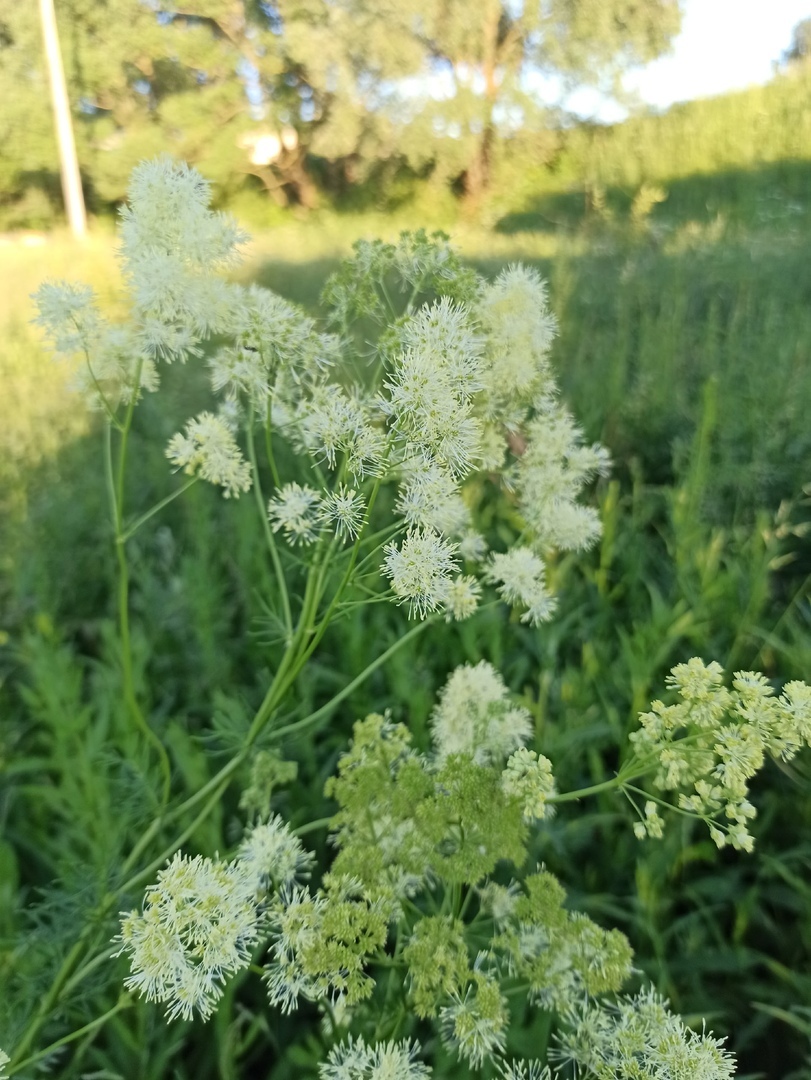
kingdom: Plantae
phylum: Tracheophyta
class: Magnoliopsida
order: Ranunculales
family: Ranunculaceae
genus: Thalictrum
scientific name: Thalictrum lucidum
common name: Shining meadow-rue
